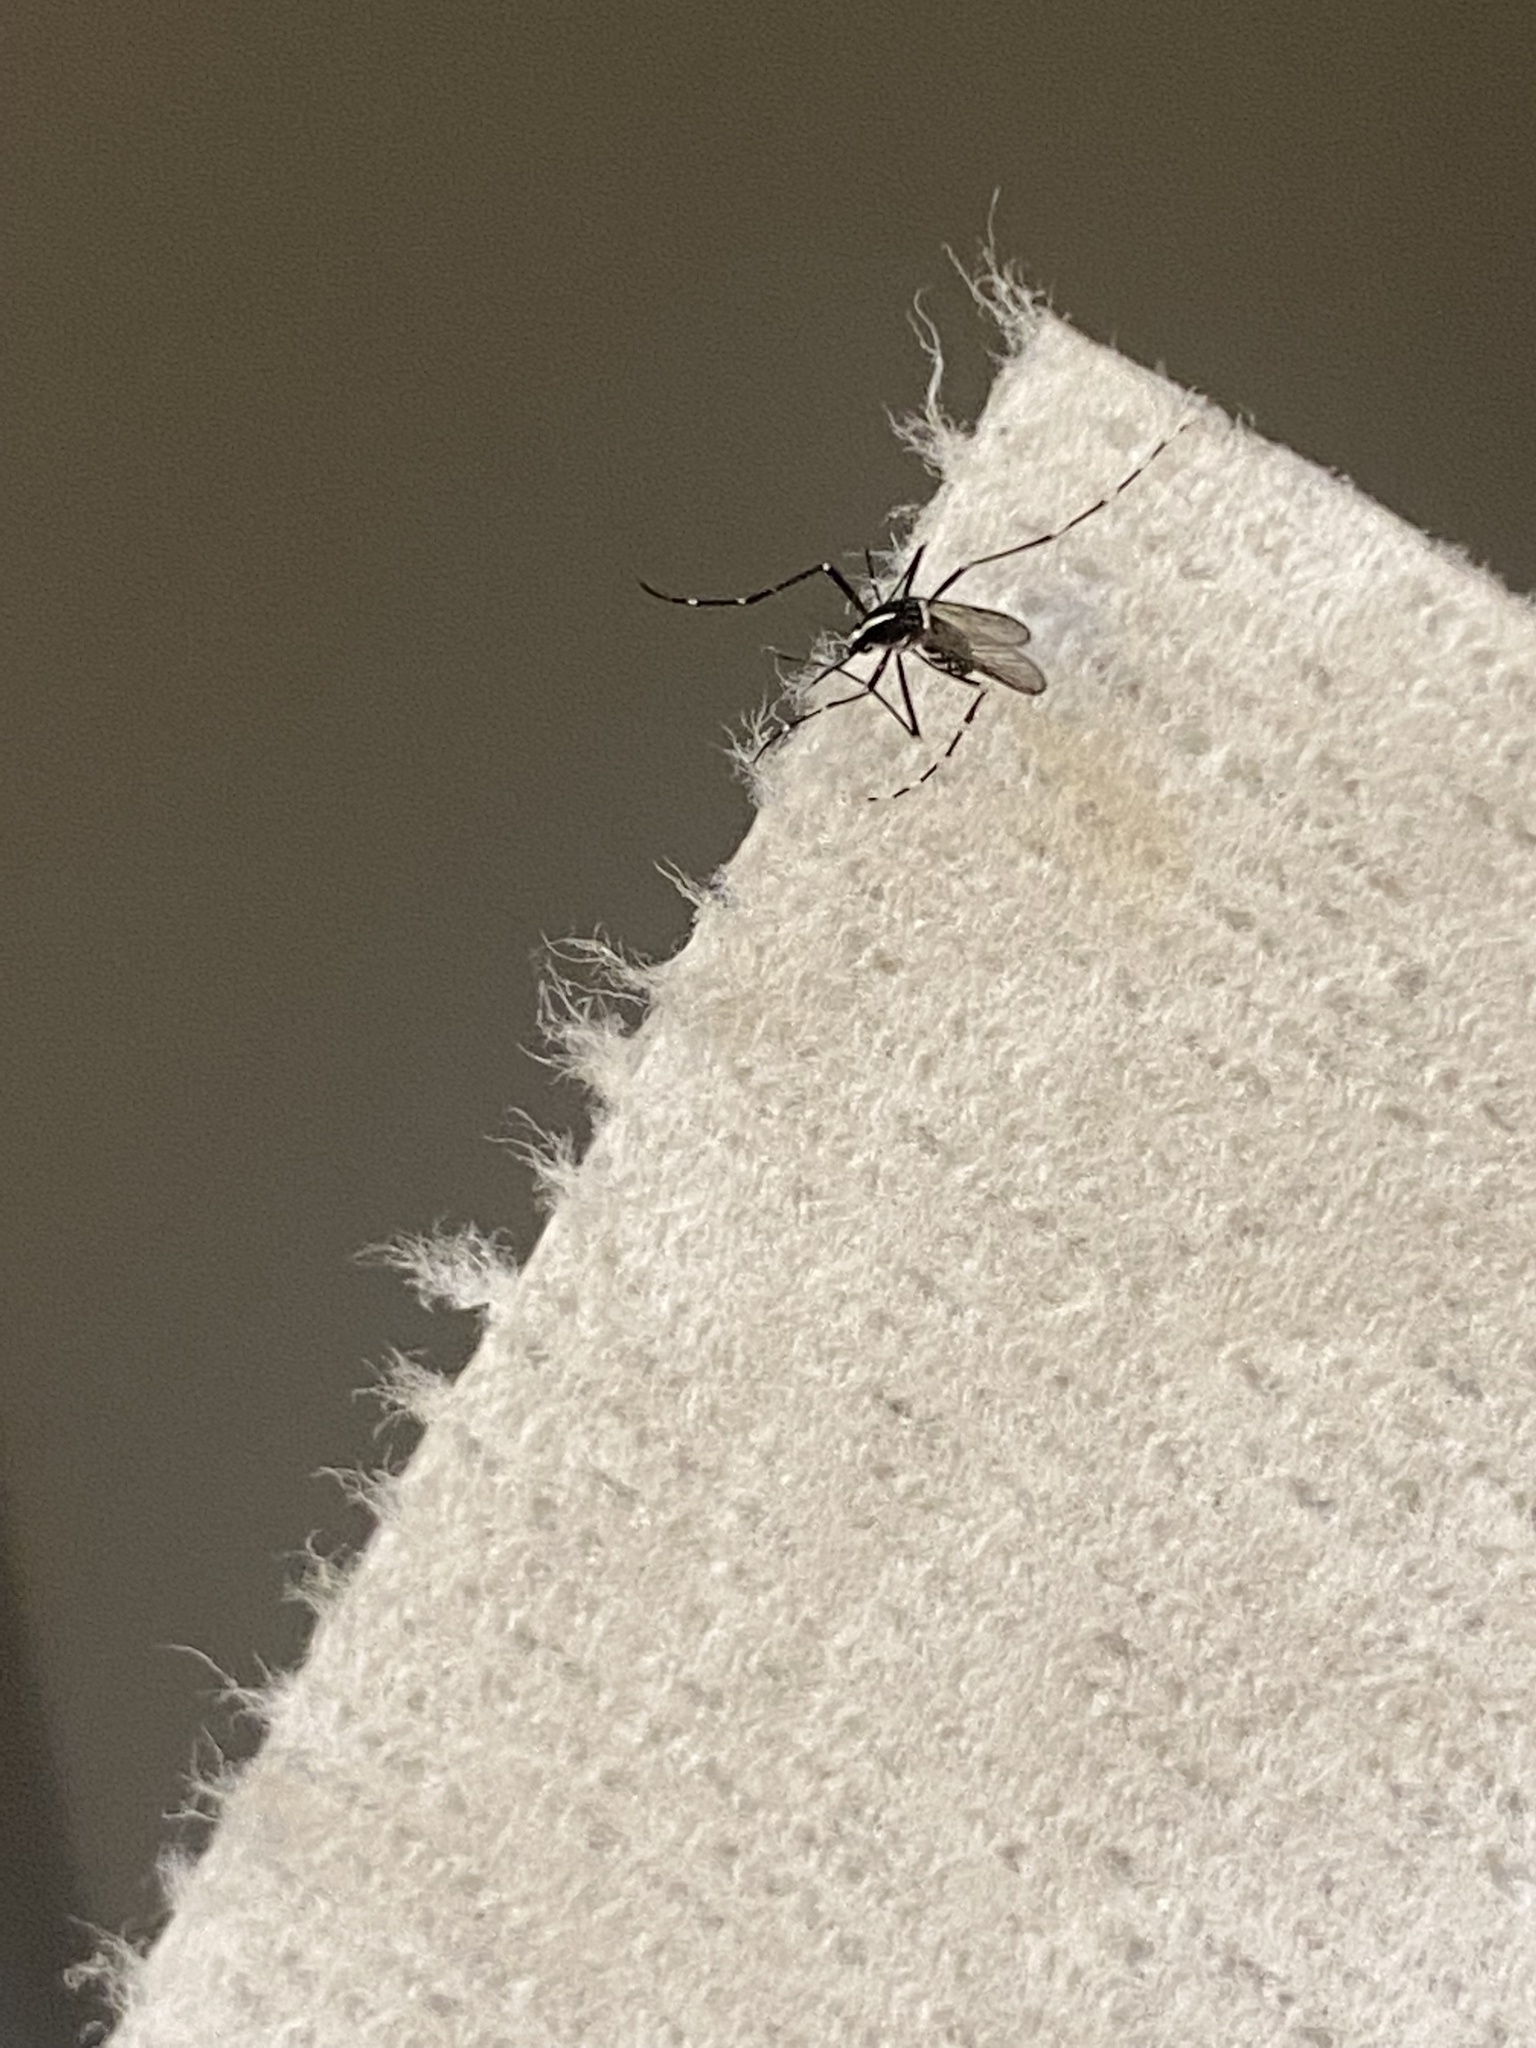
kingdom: Animalia
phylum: Arthropoda
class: Insecta
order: Diptera
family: Culicidae
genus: Aedes
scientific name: Aedes albopictus
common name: Tiger mosquito
